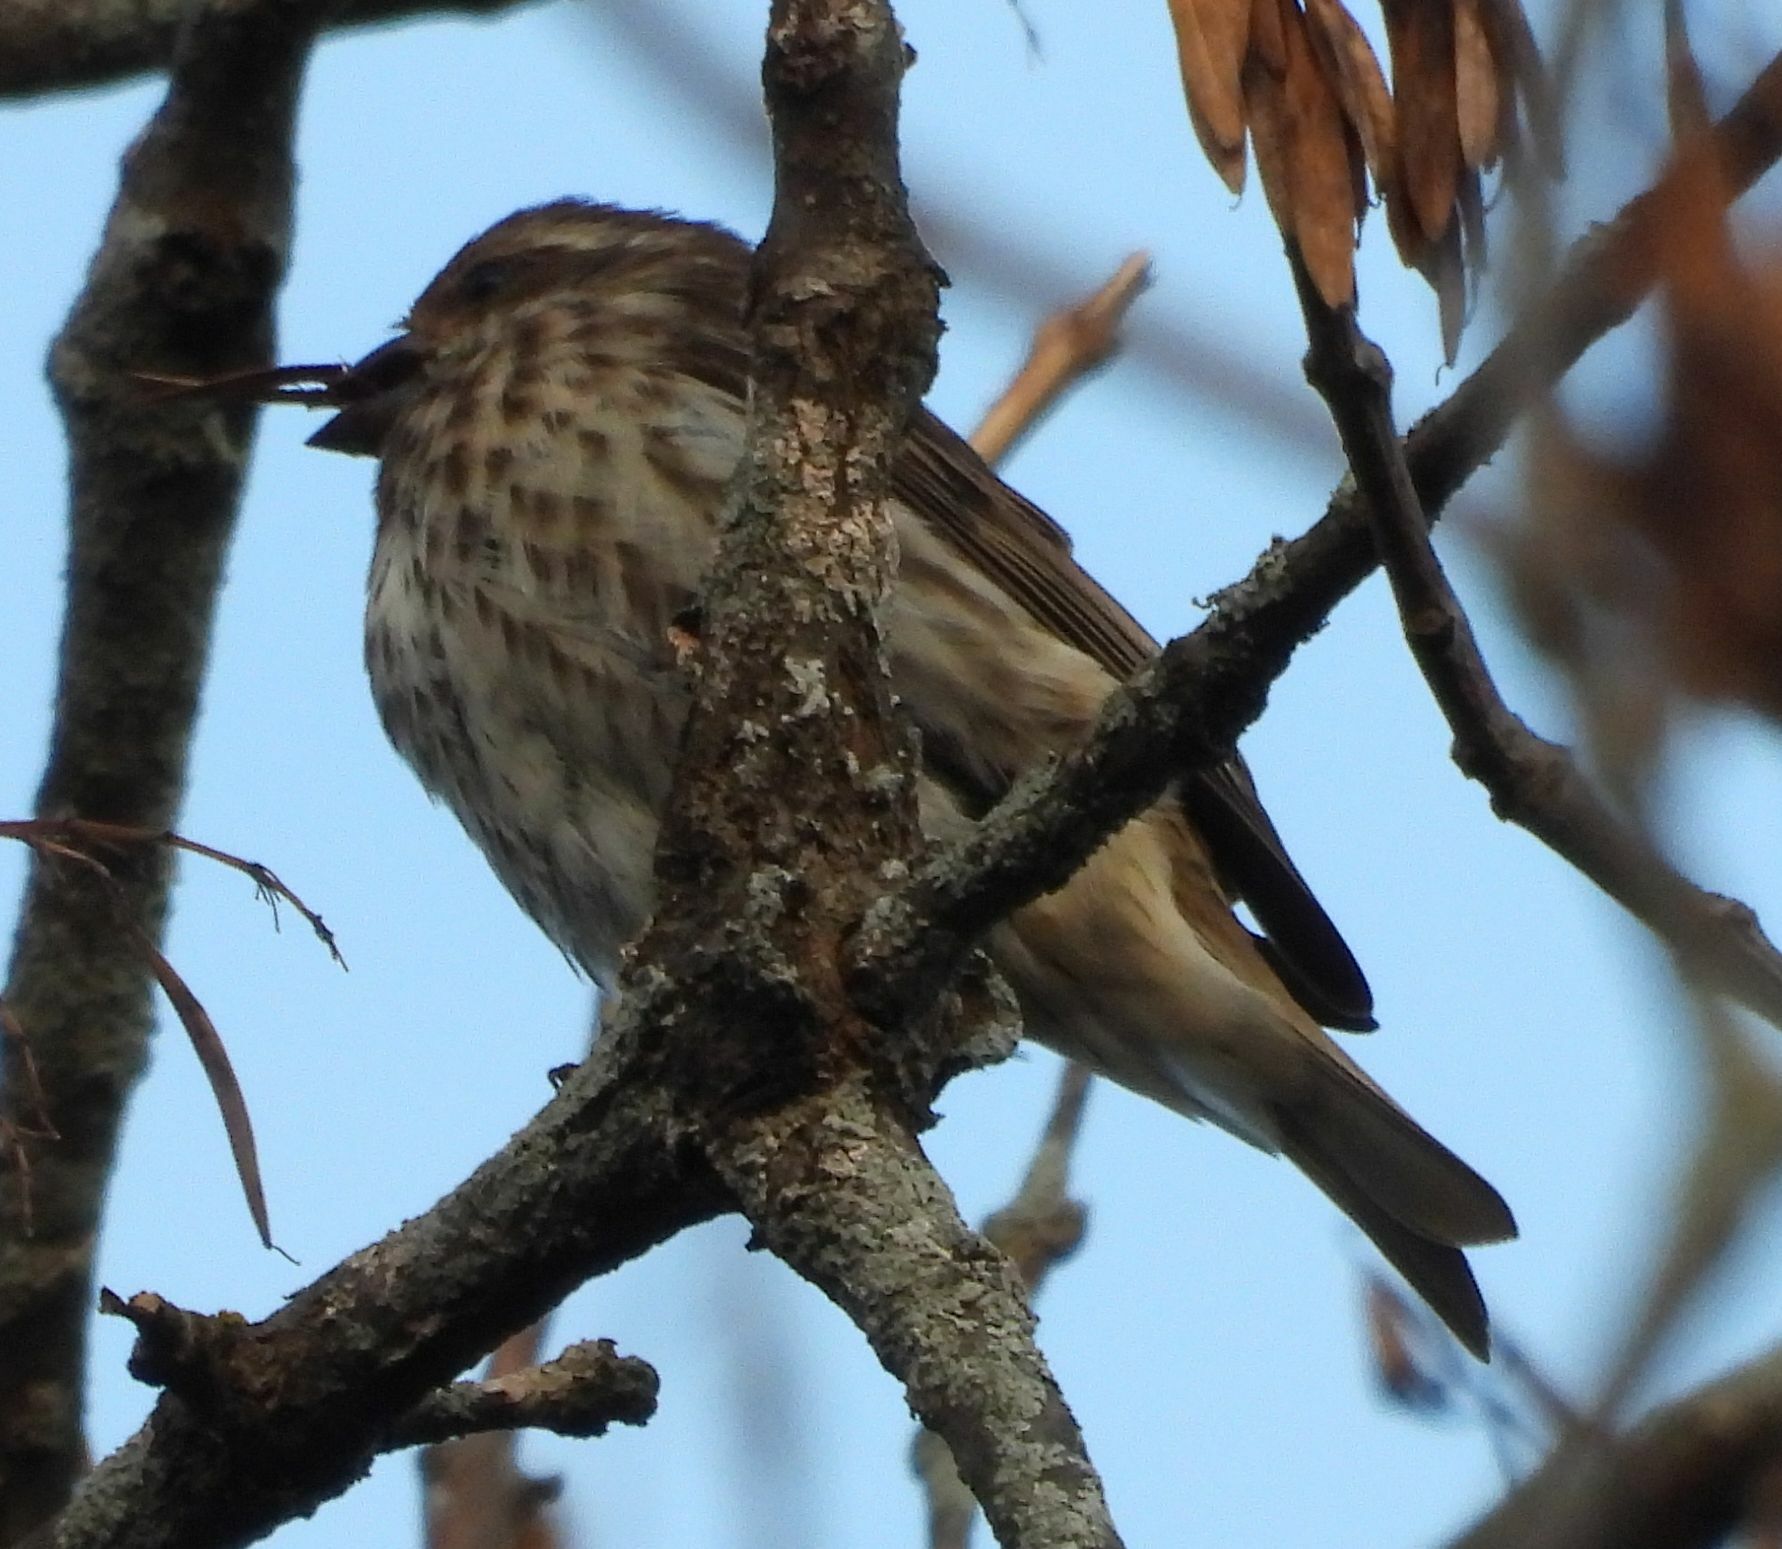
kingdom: Animalia
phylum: Chordata
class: Aves
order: Passeriformes
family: Fringillidae
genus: Haemorhous
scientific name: Haemorhous purpureus
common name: Purple finch
